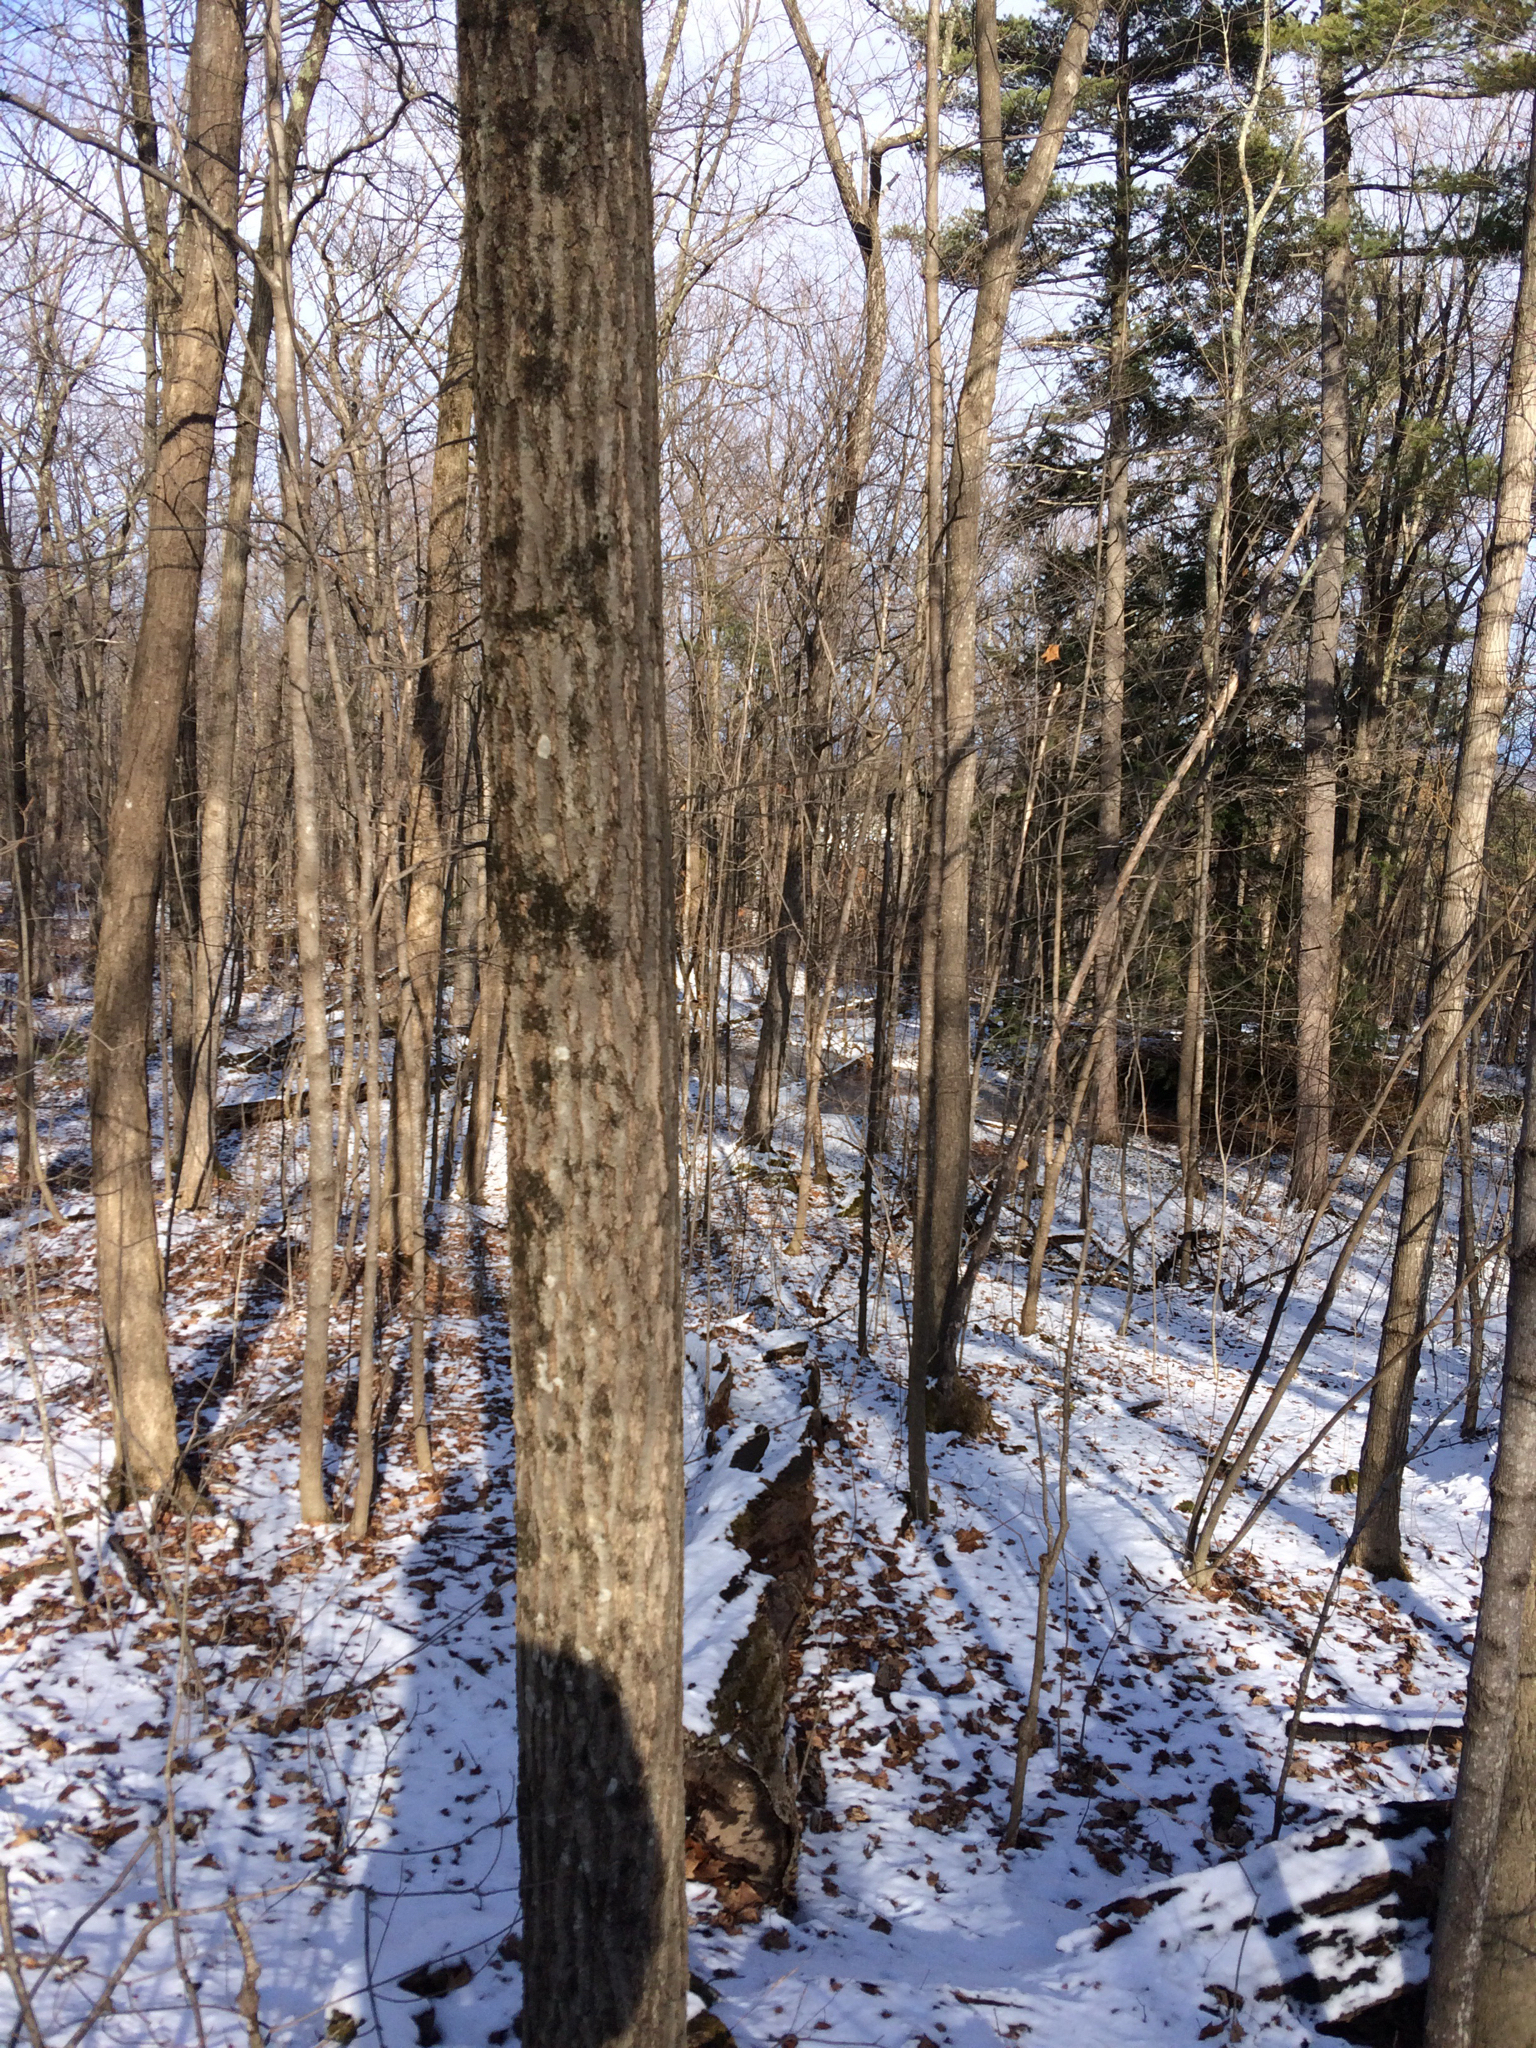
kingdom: Plantae
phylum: Tracheophyta
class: Magnoliopsida
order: Fagales
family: Fagaceae
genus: Quercus
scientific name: Quercus rubra
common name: Red oak
